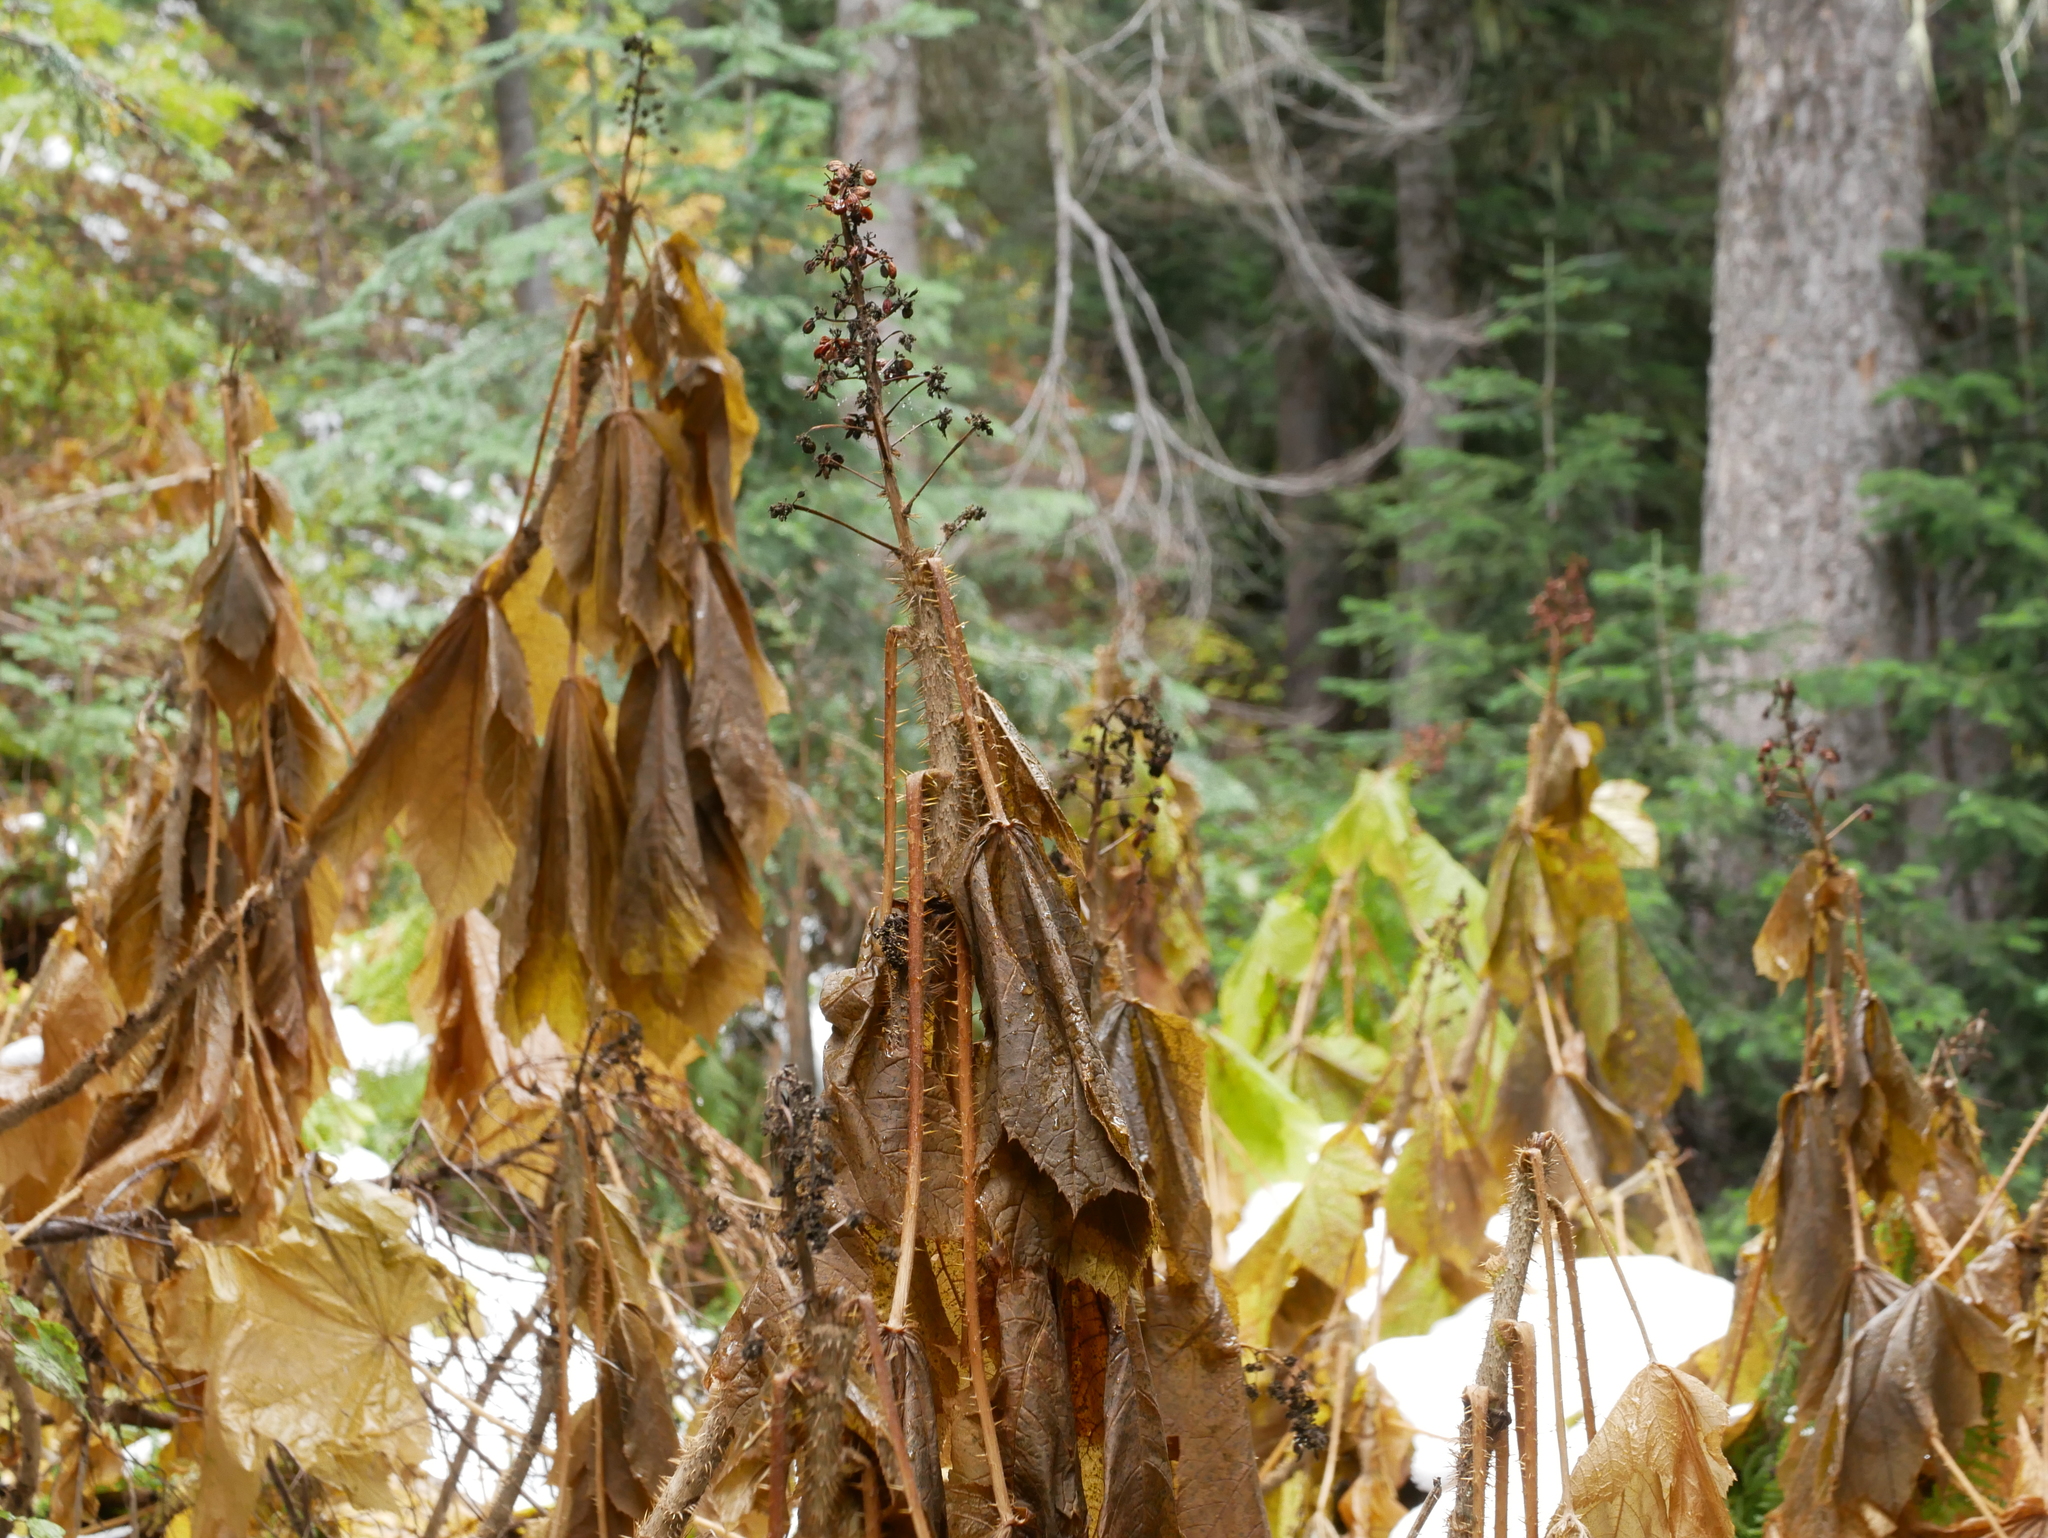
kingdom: Plantae
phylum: Tracheophyta
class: Magnoliopsida
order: Apiales
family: Araliaceae
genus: Oplopanax
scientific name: Oplopanax horridus
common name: Devil's walking-stick
